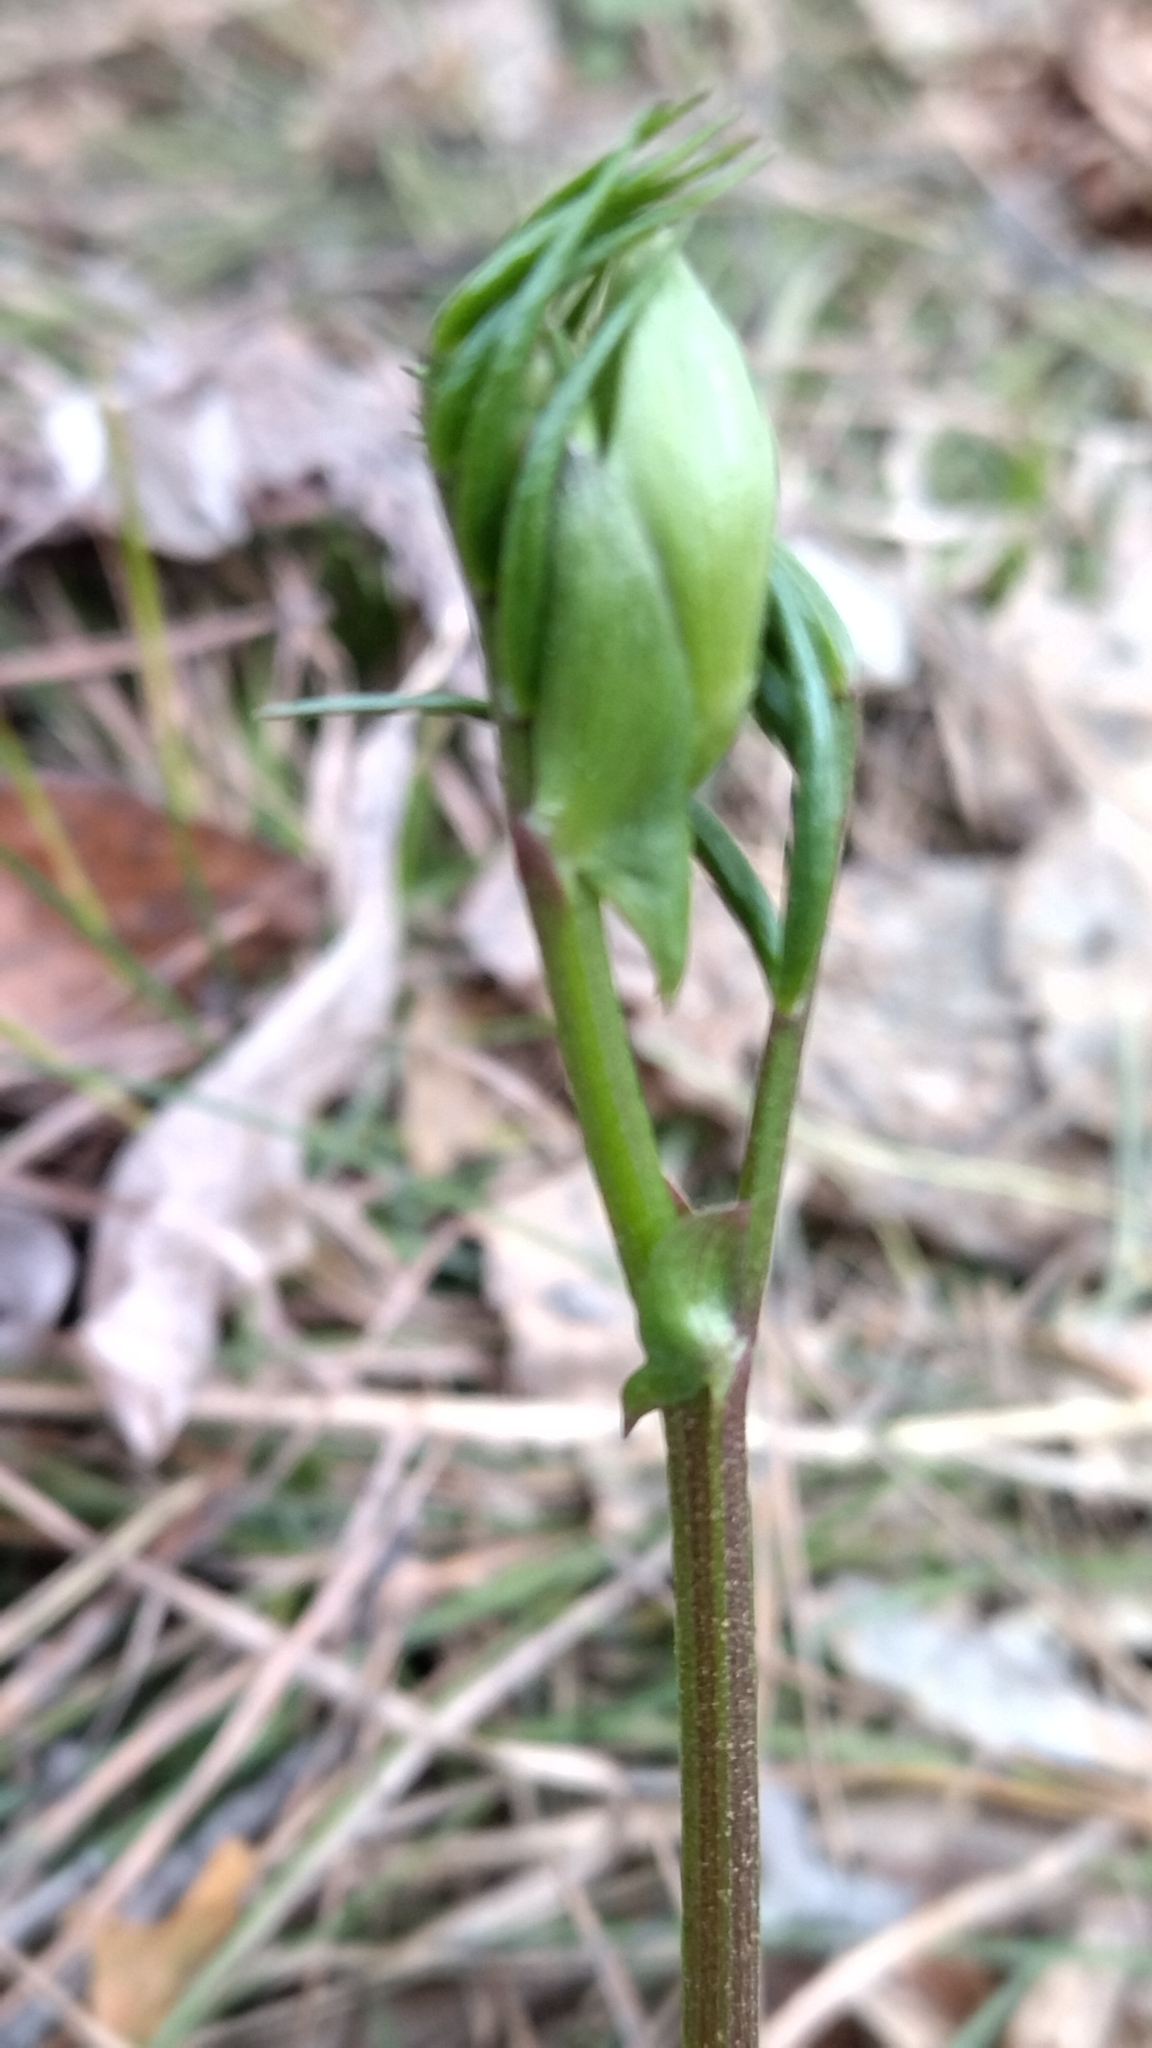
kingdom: Plantae
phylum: Tracheophyta
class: Magnoliopsida
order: Fabales
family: Fabaceae
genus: Lathyrus
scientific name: Lathyrus vernus
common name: Spring pea
